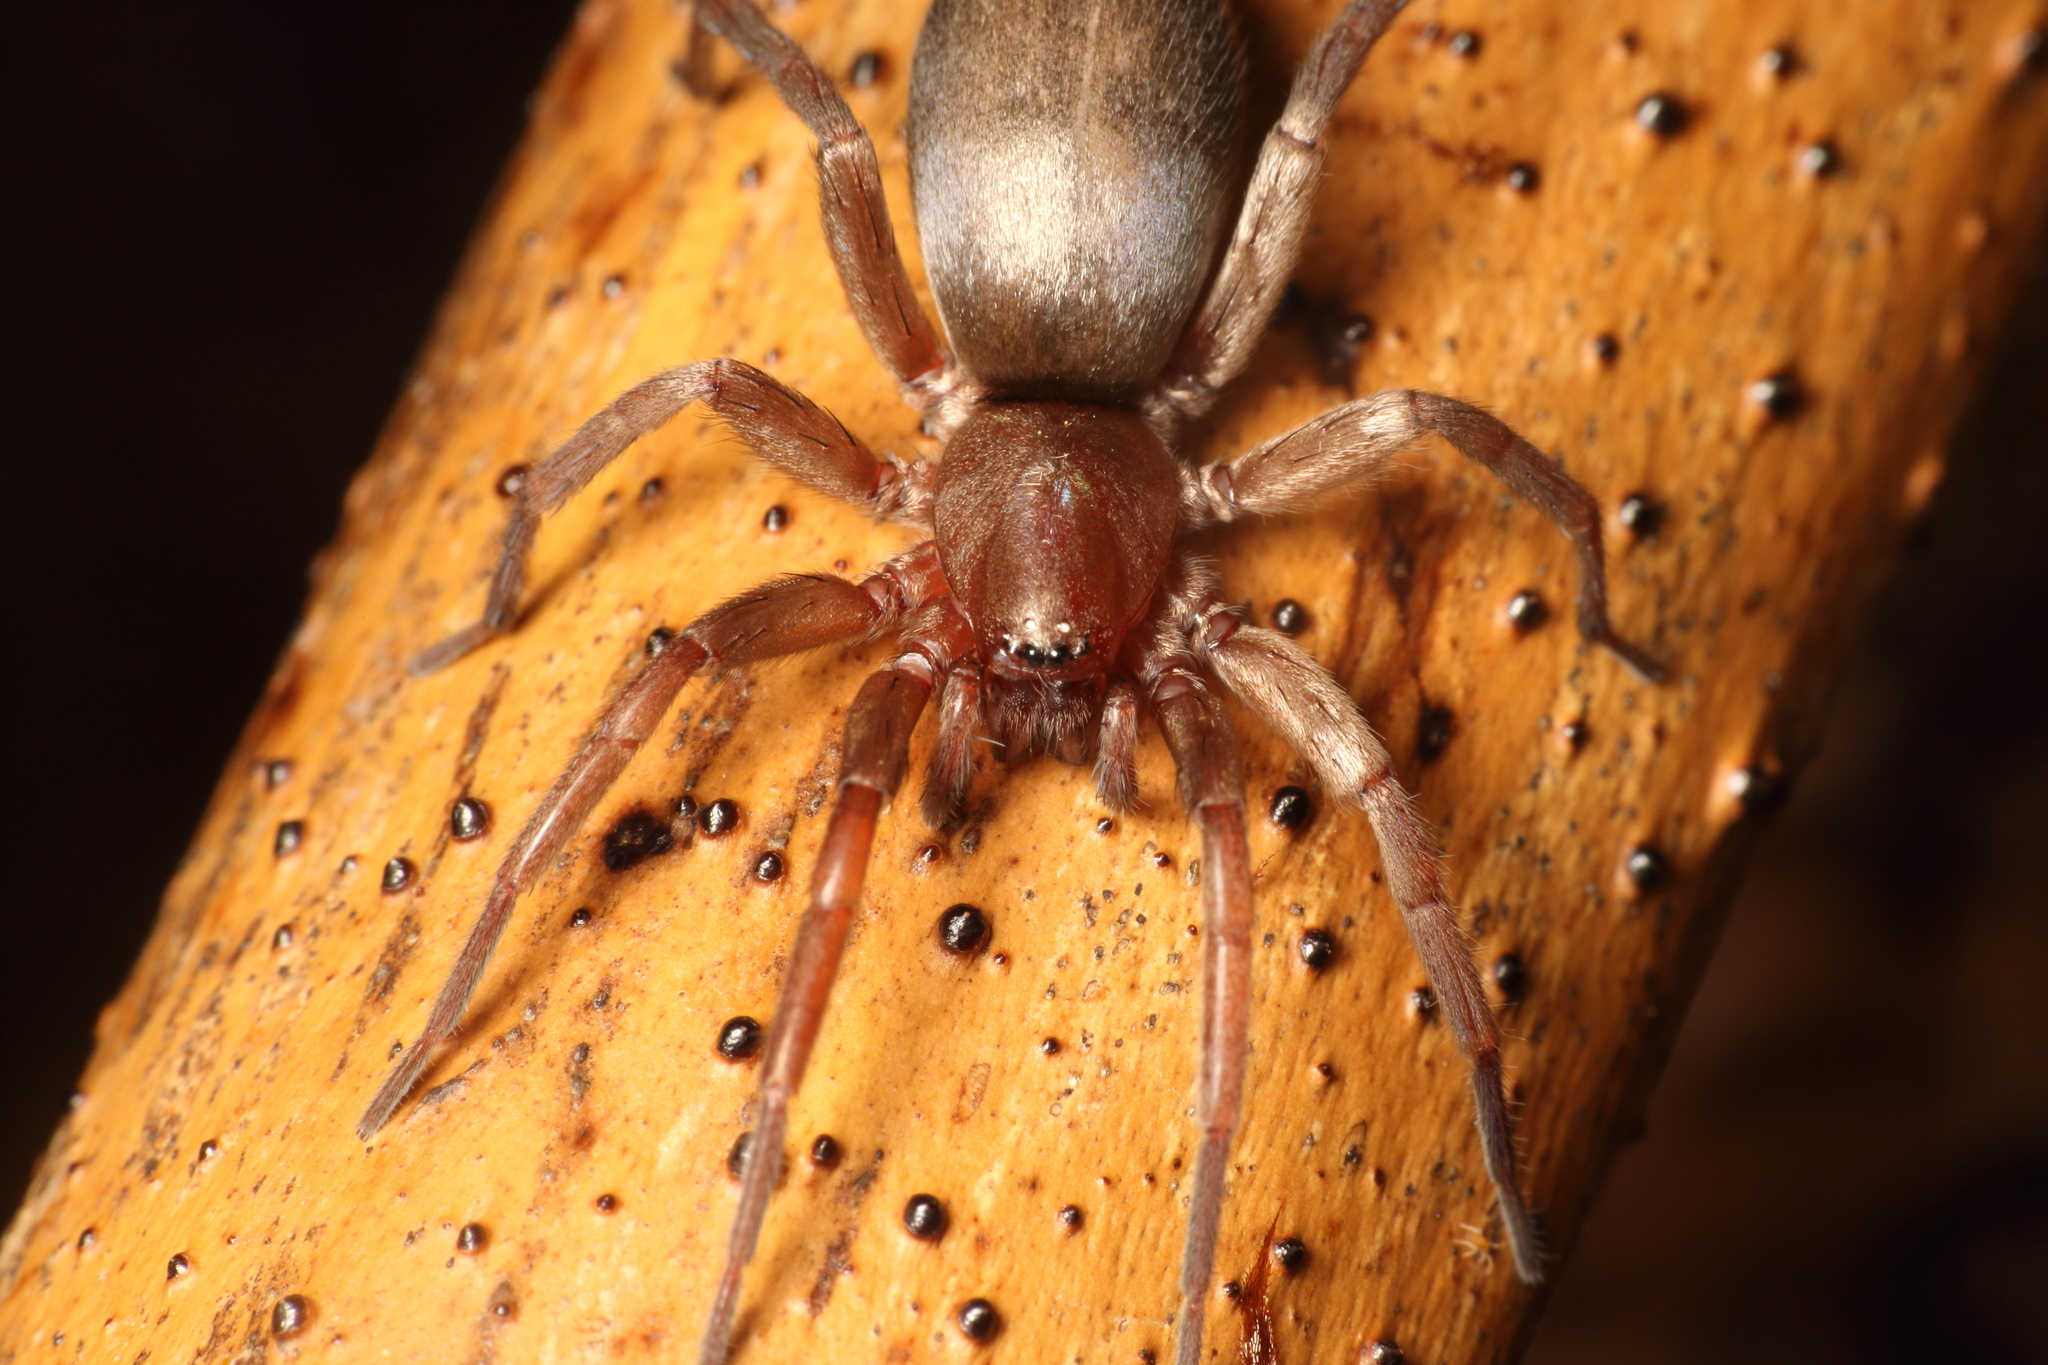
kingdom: Animalia
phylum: Arthropoda
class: Arachnida
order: Araneae
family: Gnaphosidae
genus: Hypodrassodes
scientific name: Hypodrassodes maoricus
